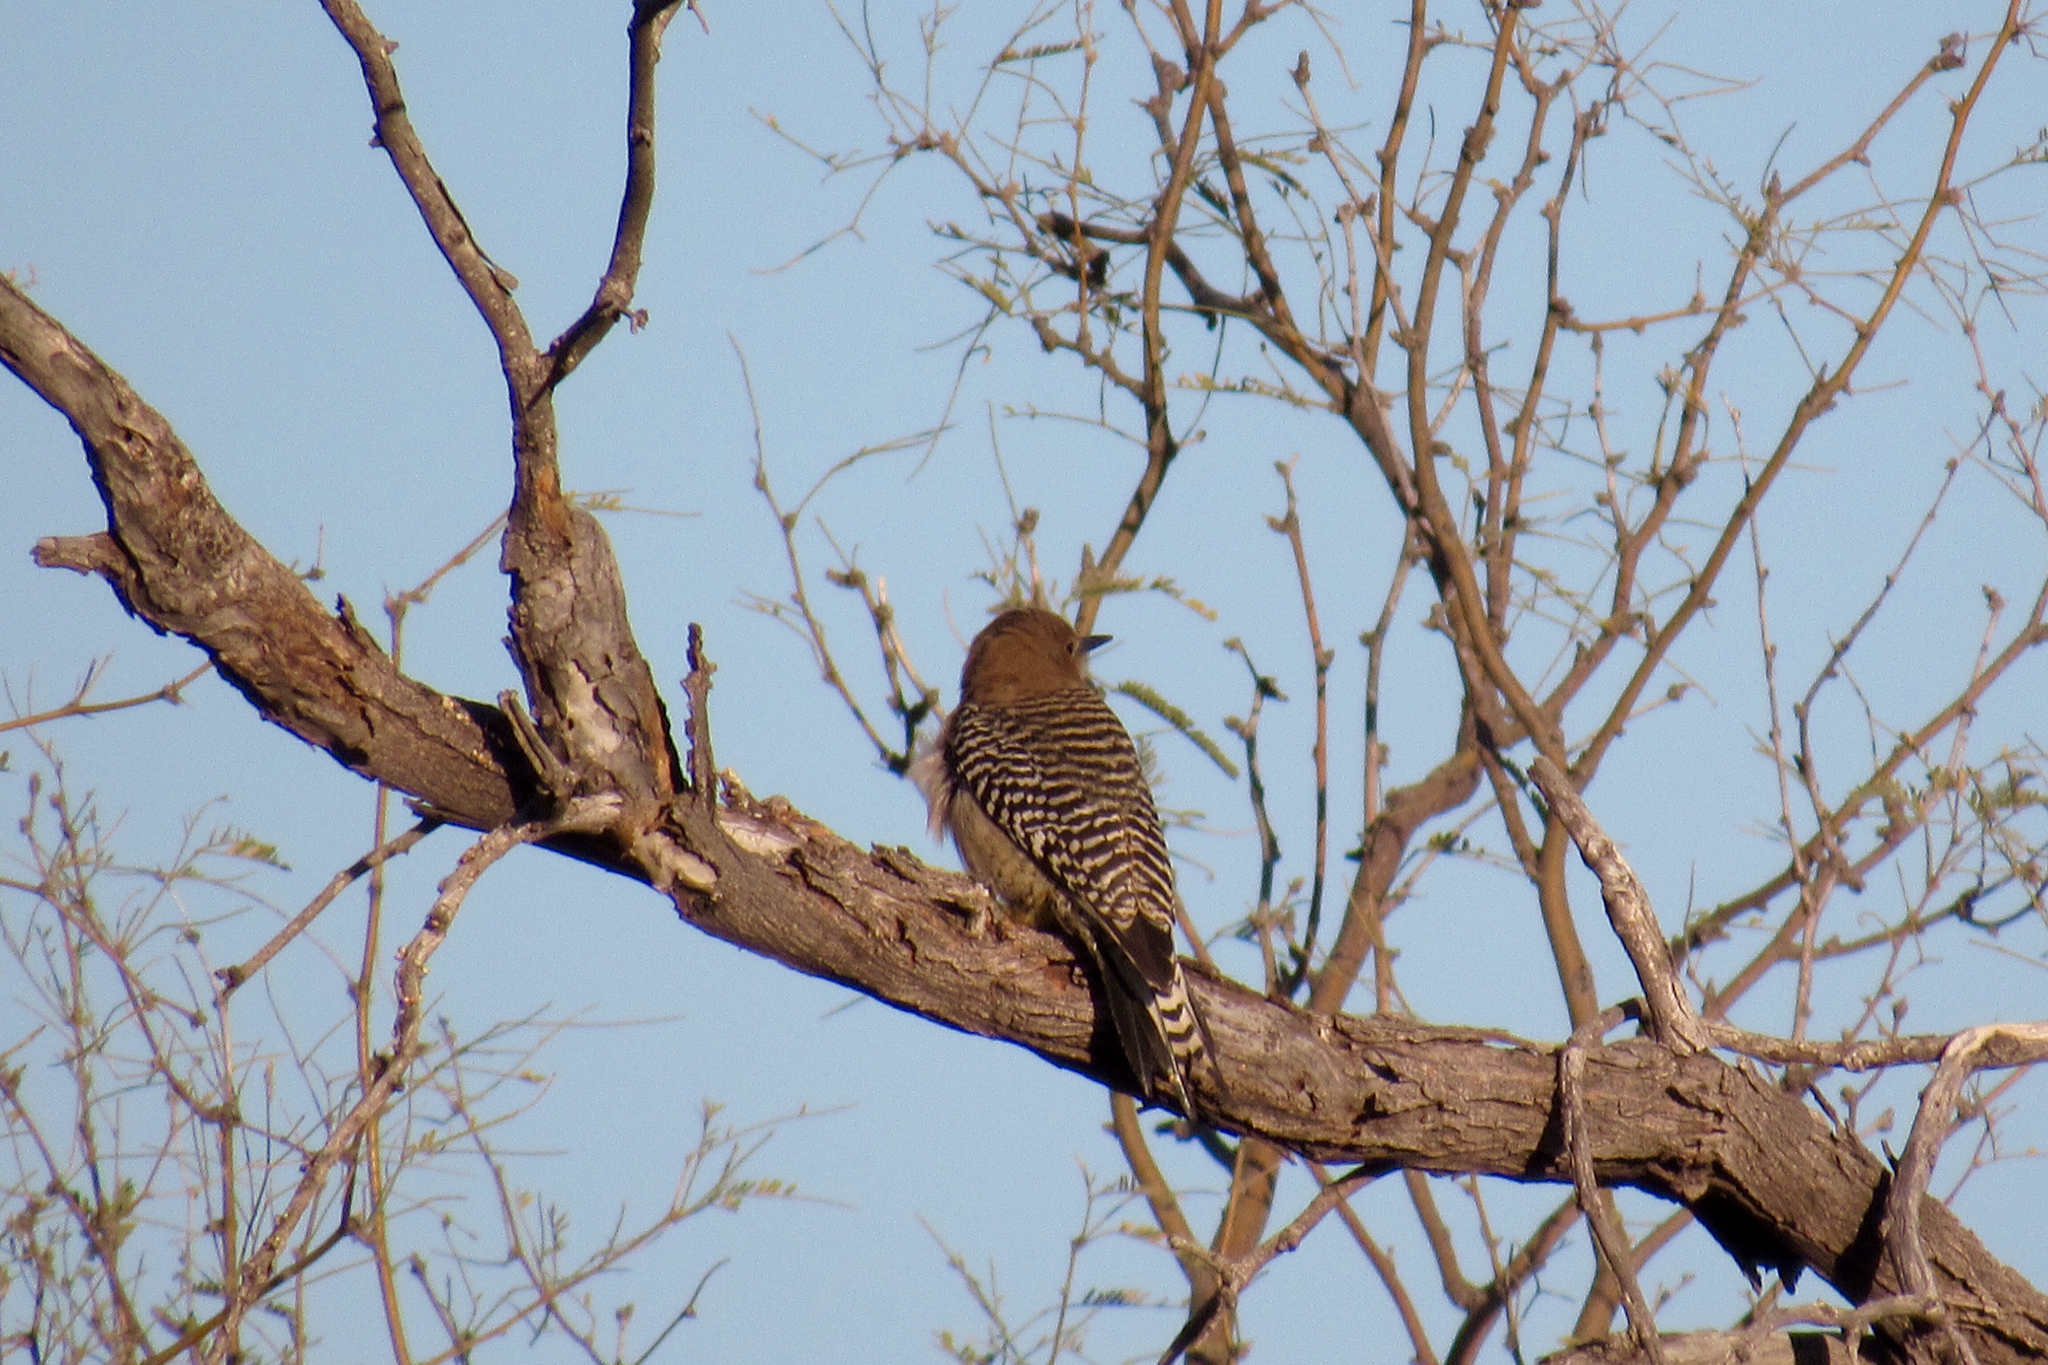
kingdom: Animalia
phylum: Chordata
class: Aves
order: Piciformes
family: Picidae
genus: Melanerpes
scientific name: Melanerpes uropygialis
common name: Gila woodpecker
